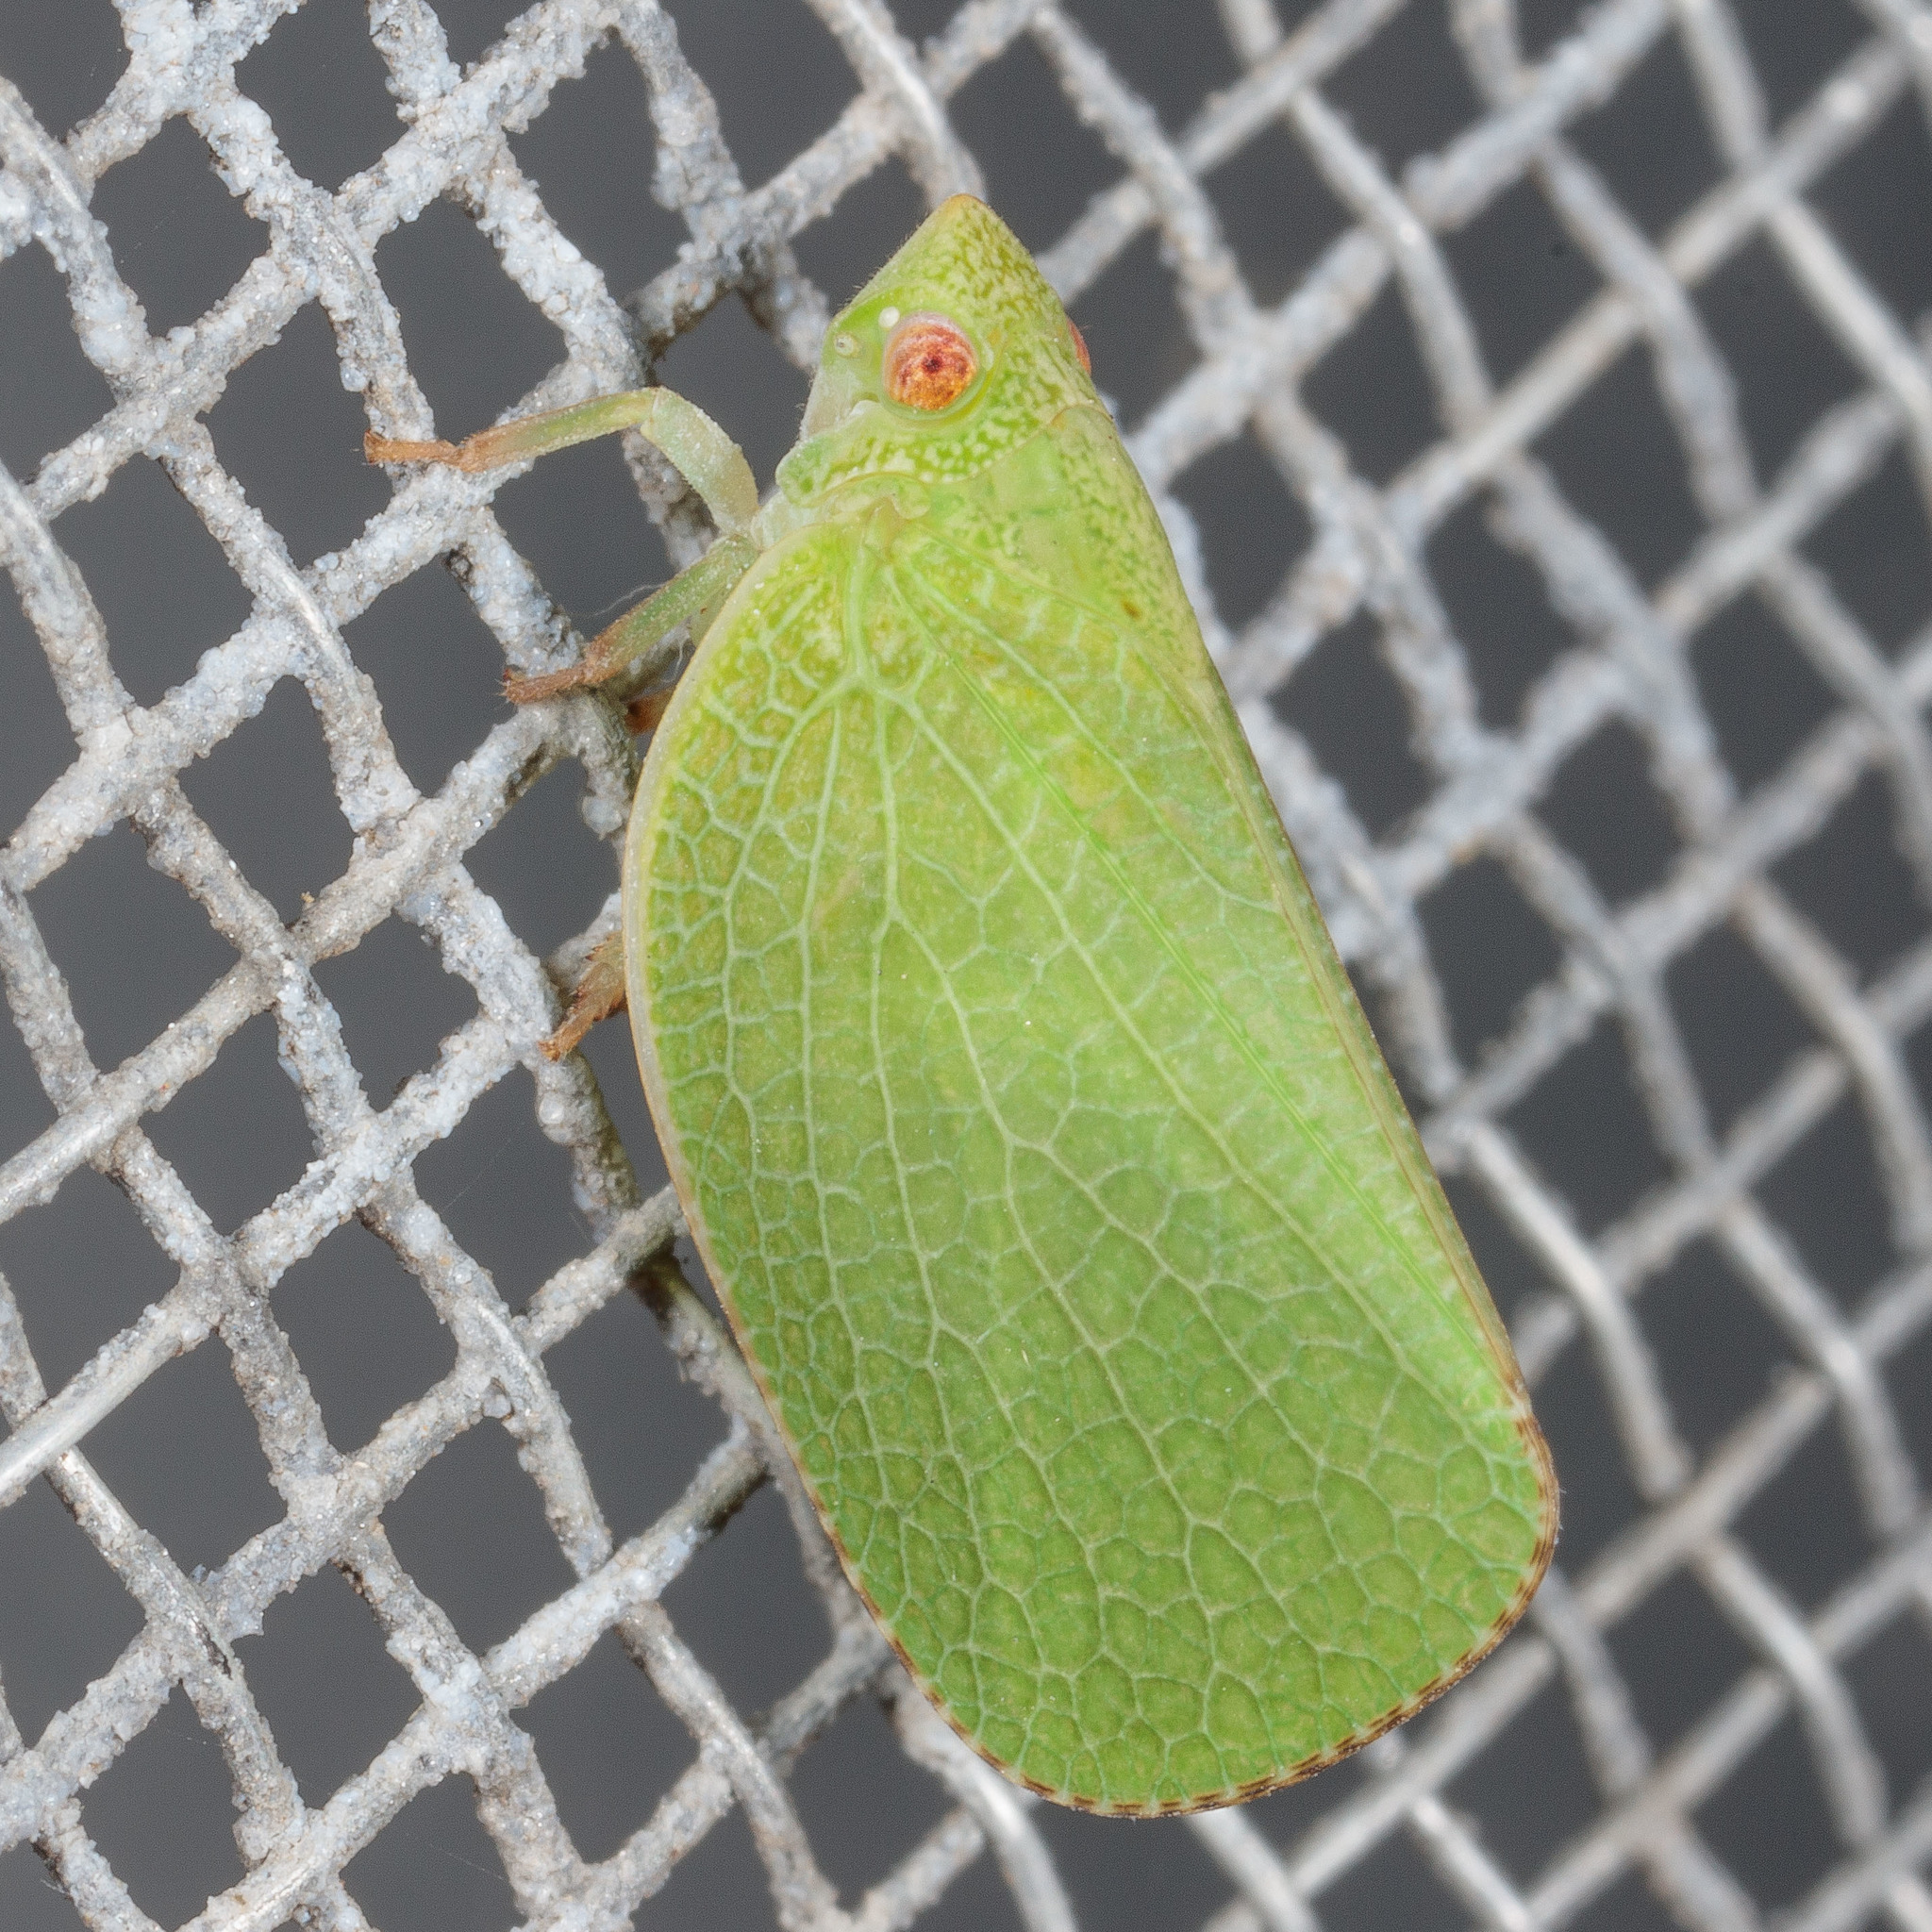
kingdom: Animalia
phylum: Arthropoda
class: Insecta
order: Hemiptera
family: Acanaloniidae
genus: Acanalonia
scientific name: Acanalonia conica
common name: Green cone-headed planthopper
